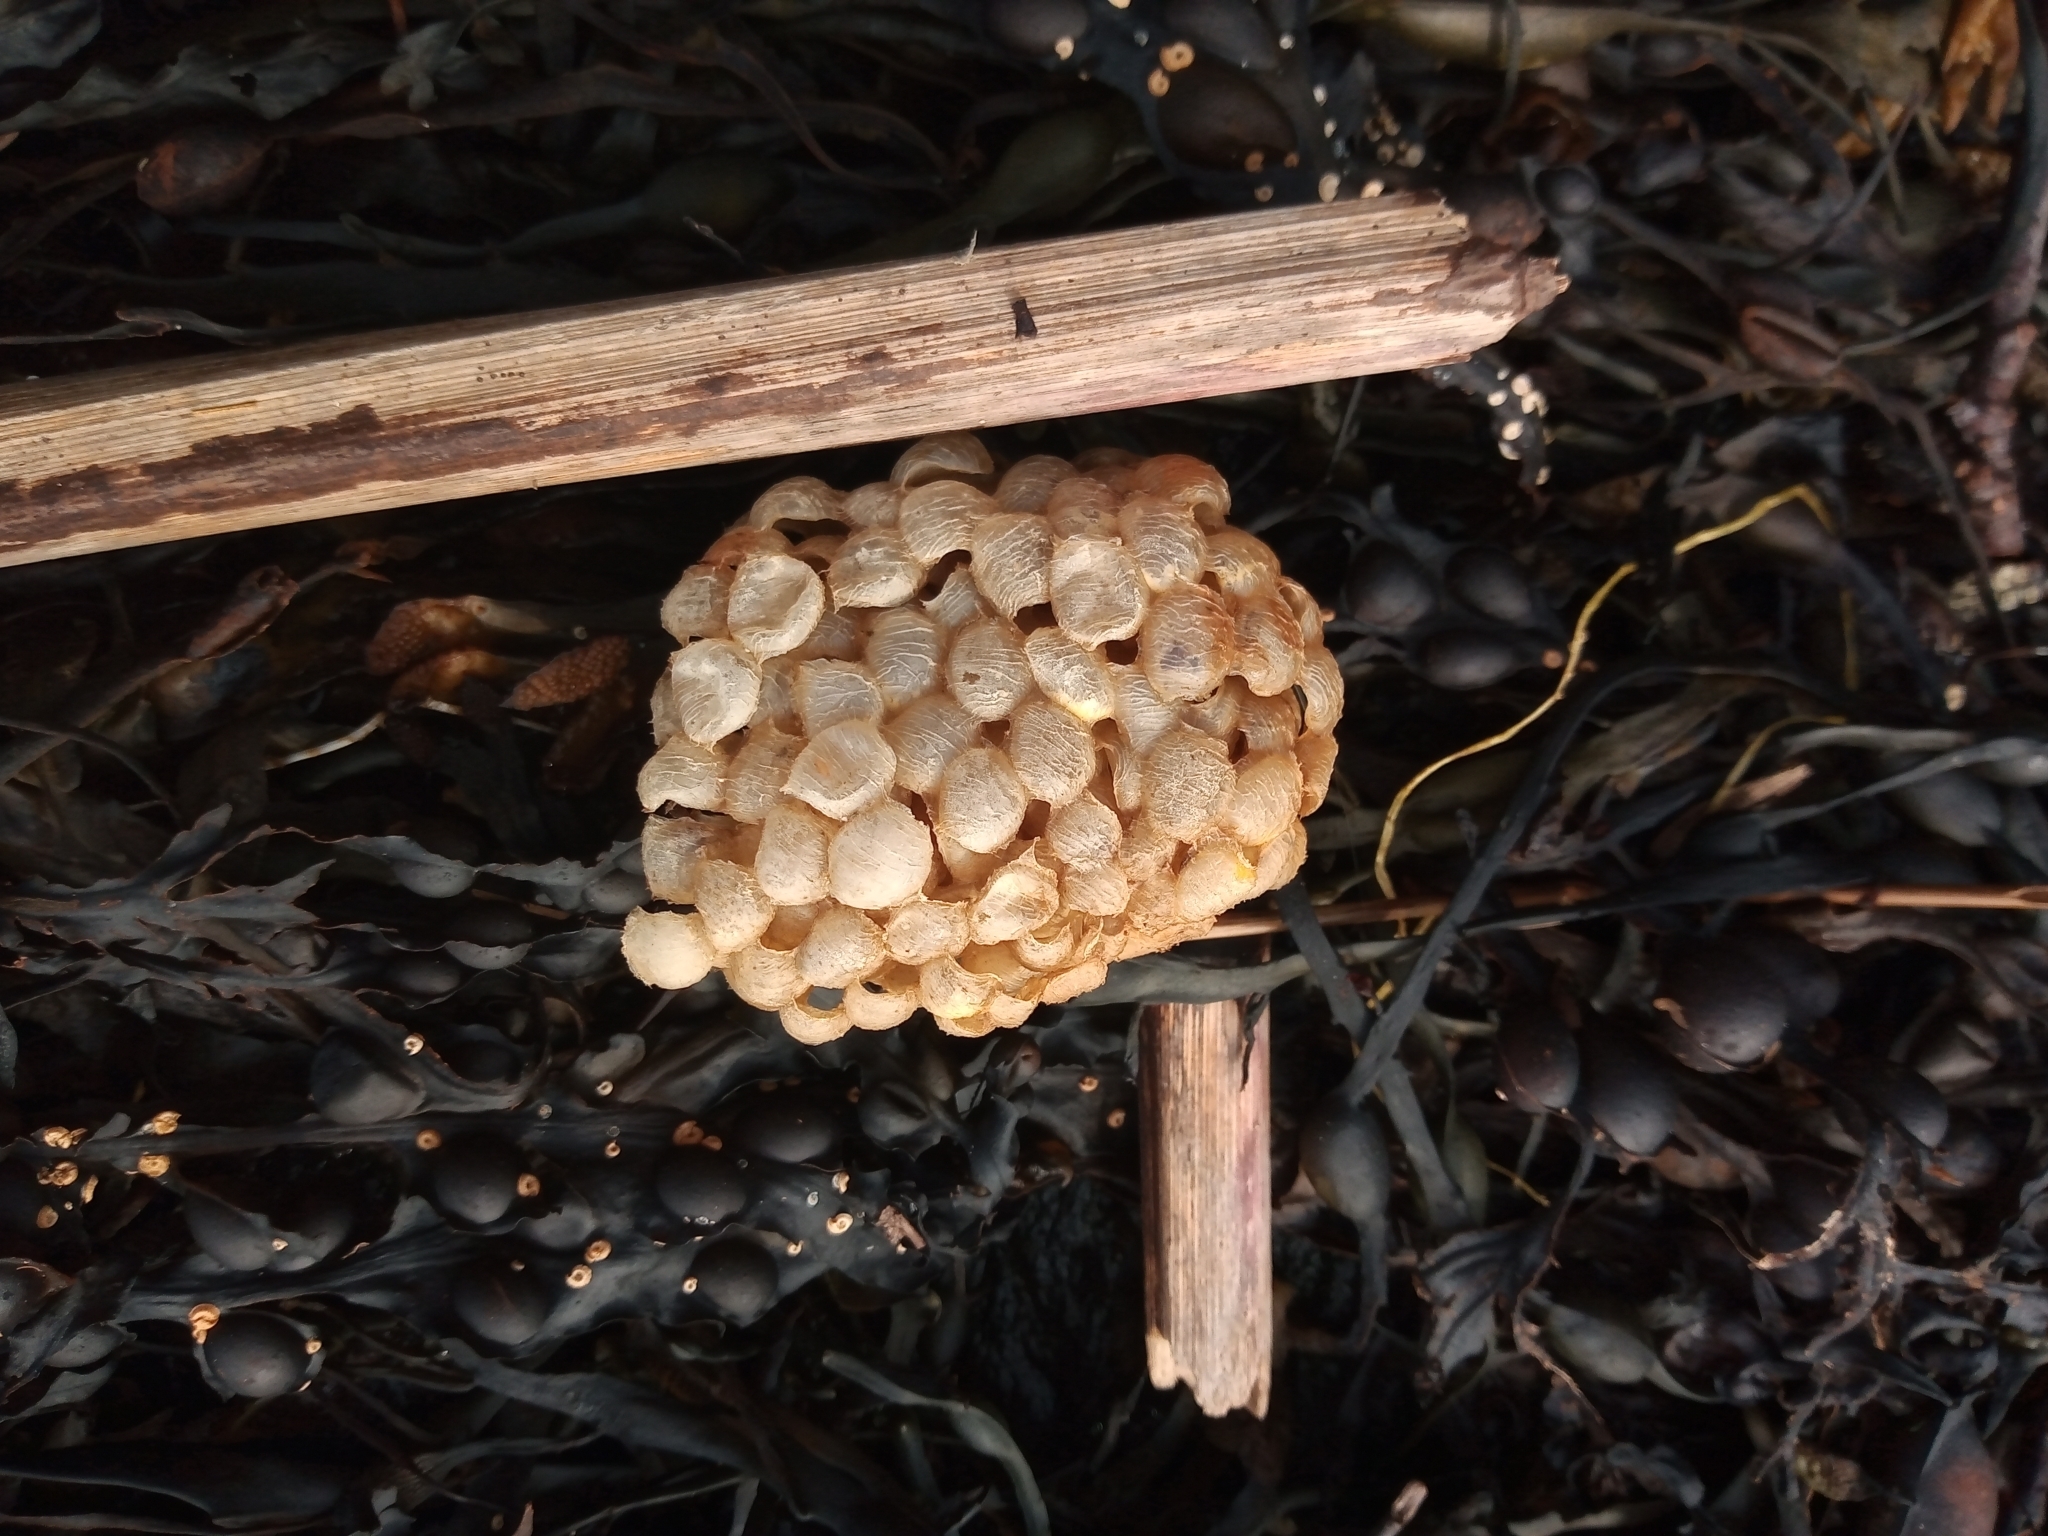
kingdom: Animalia
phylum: Mollusca
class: Gastropoda
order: Neogastropoda
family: Buccinidae
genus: Buccinum
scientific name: Buccinum undatum
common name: Common whelk
